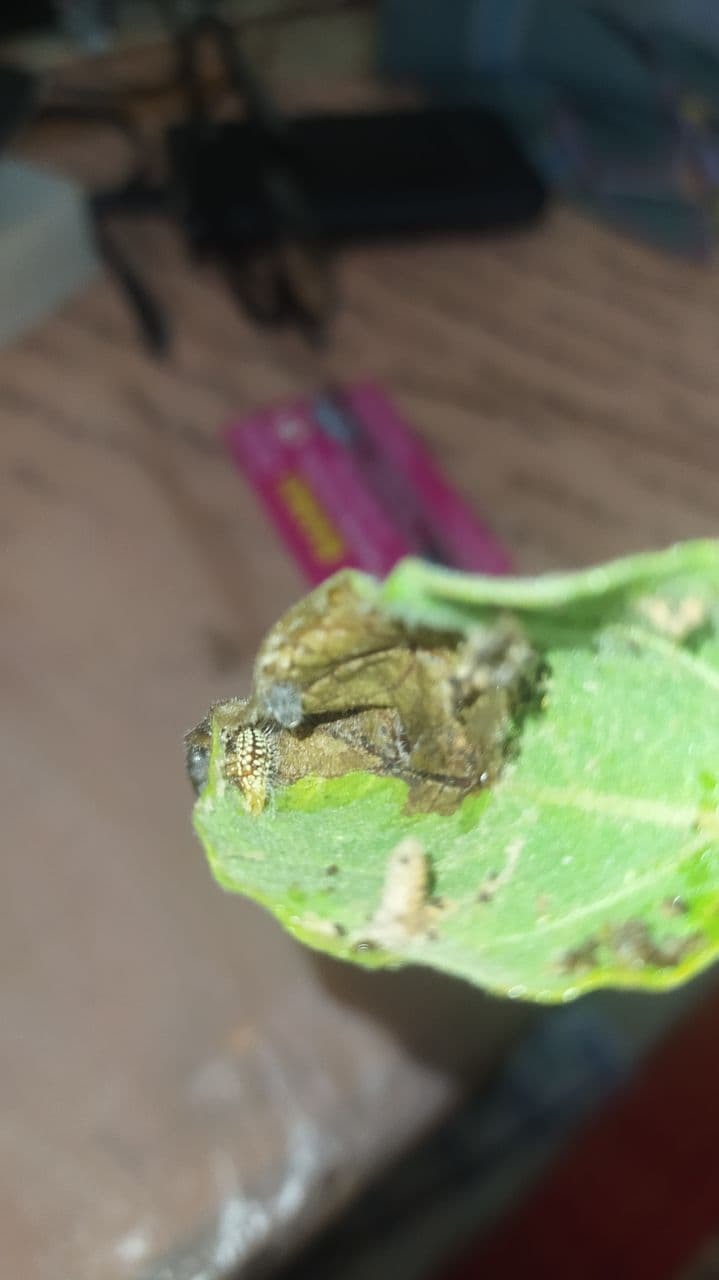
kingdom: Animalia
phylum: Arthropoda
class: Insecta
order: Lepidoptera
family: Noctuidae
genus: Eublemma
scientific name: Eublemma olivacea
